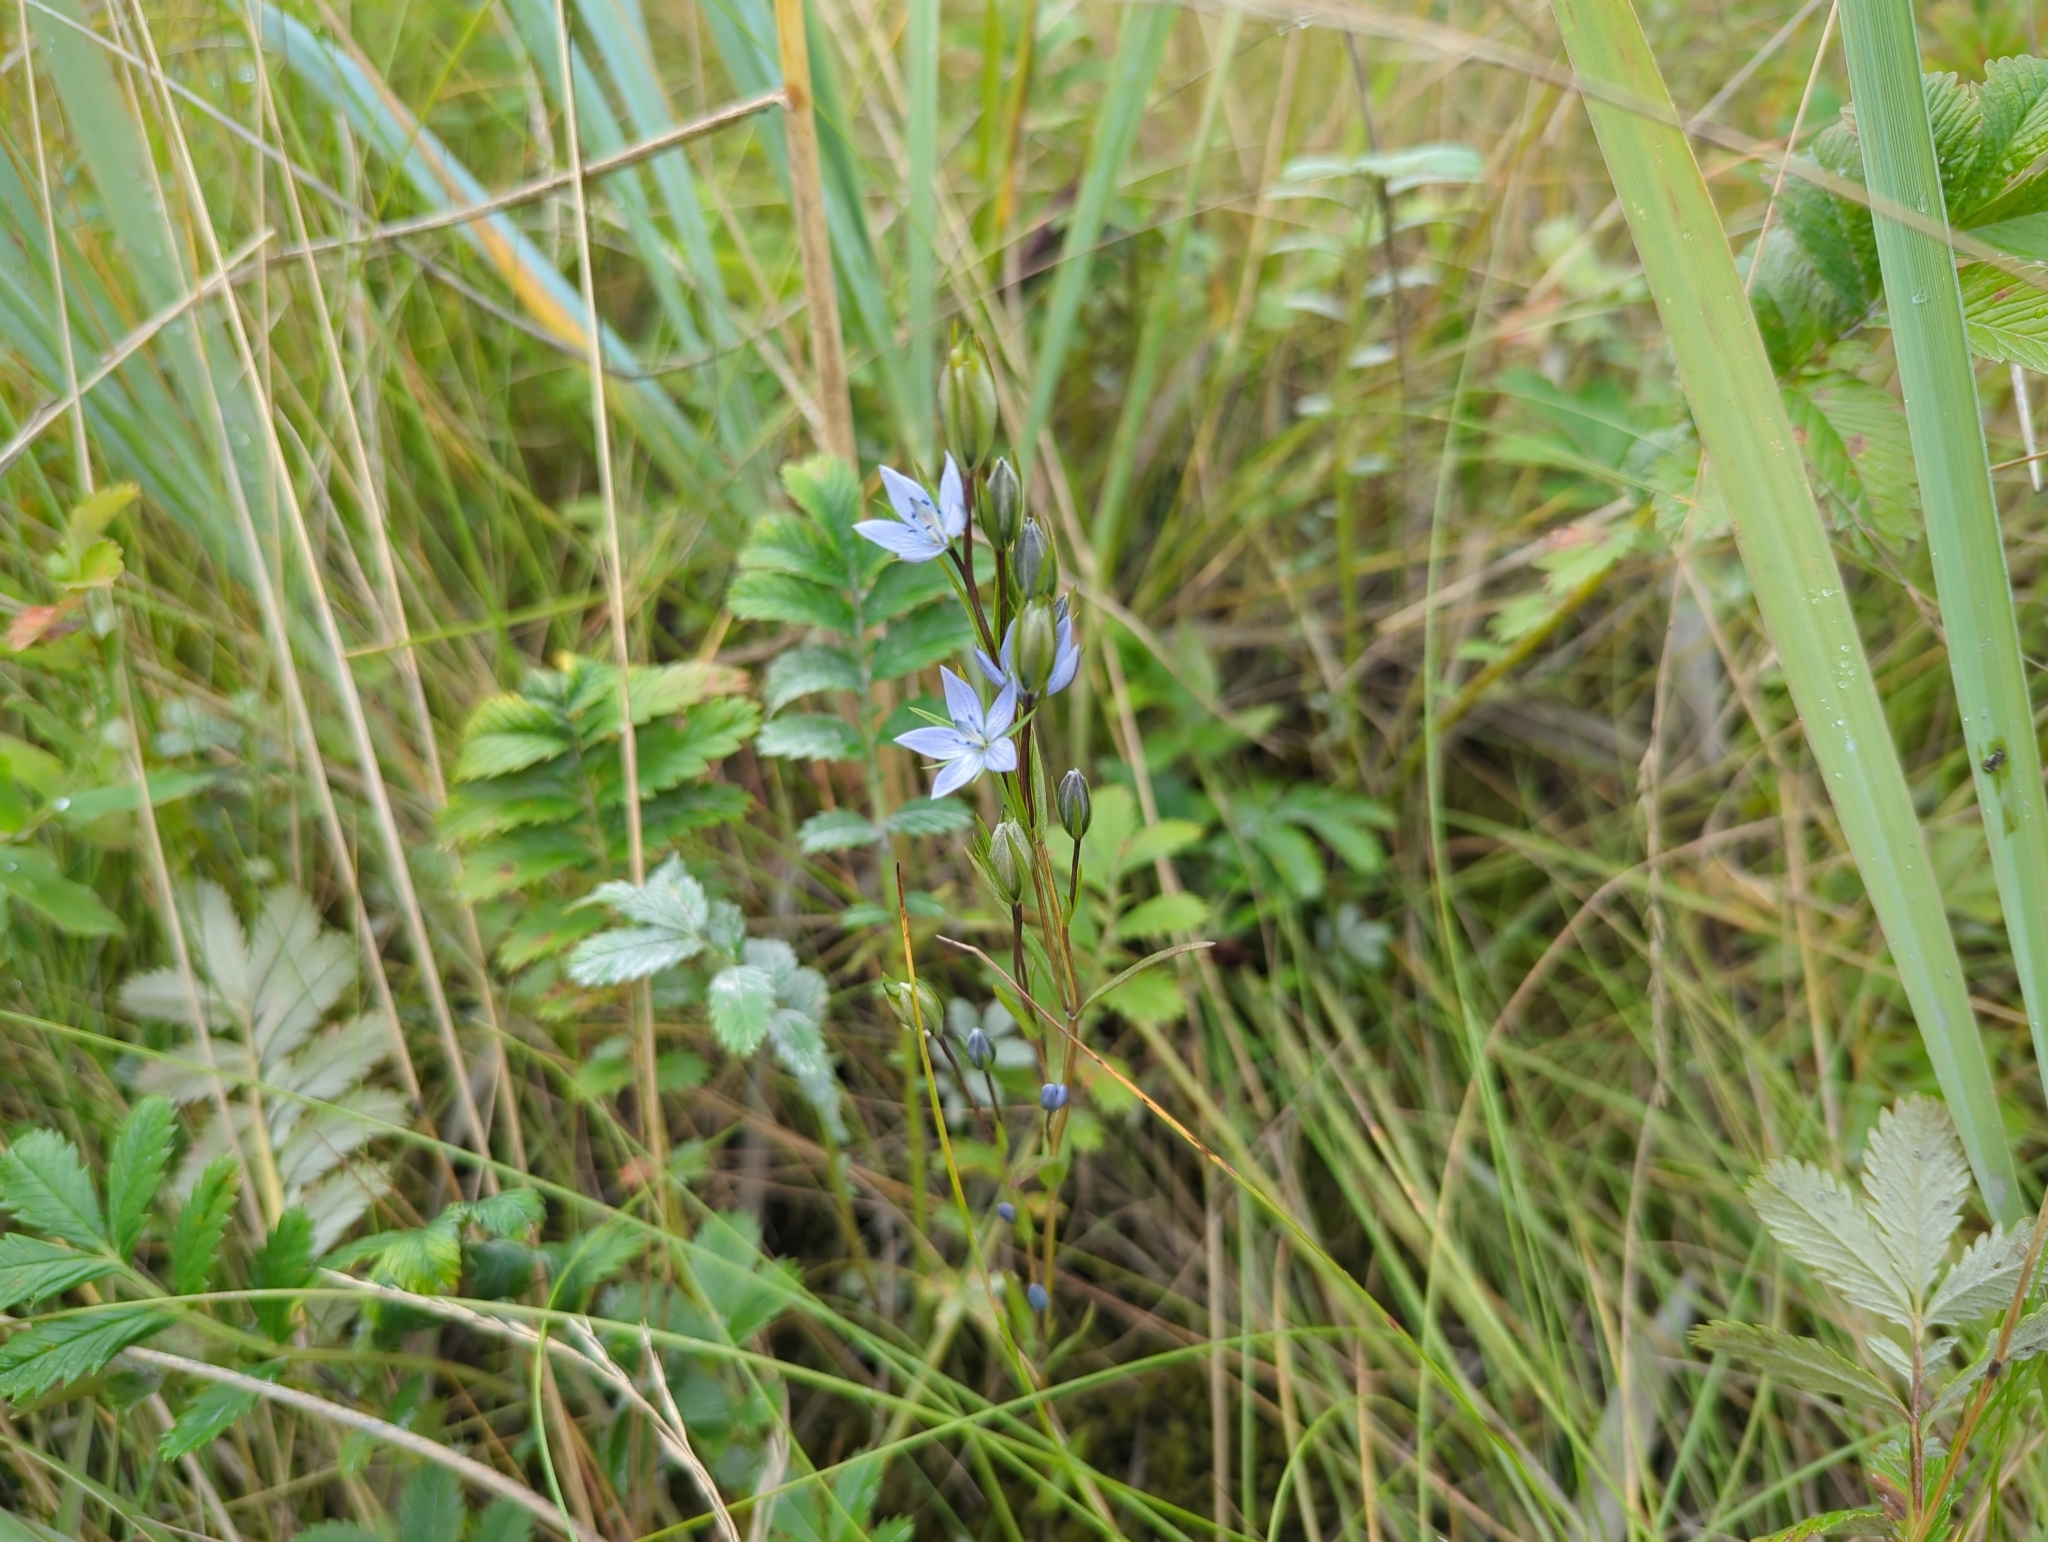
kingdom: Plantae
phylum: Tracheophyta
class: Magnoliopsida
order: Gentianales
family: Gentianaceae
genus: Lomatogonium
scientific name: Lomatogonium rotatum
